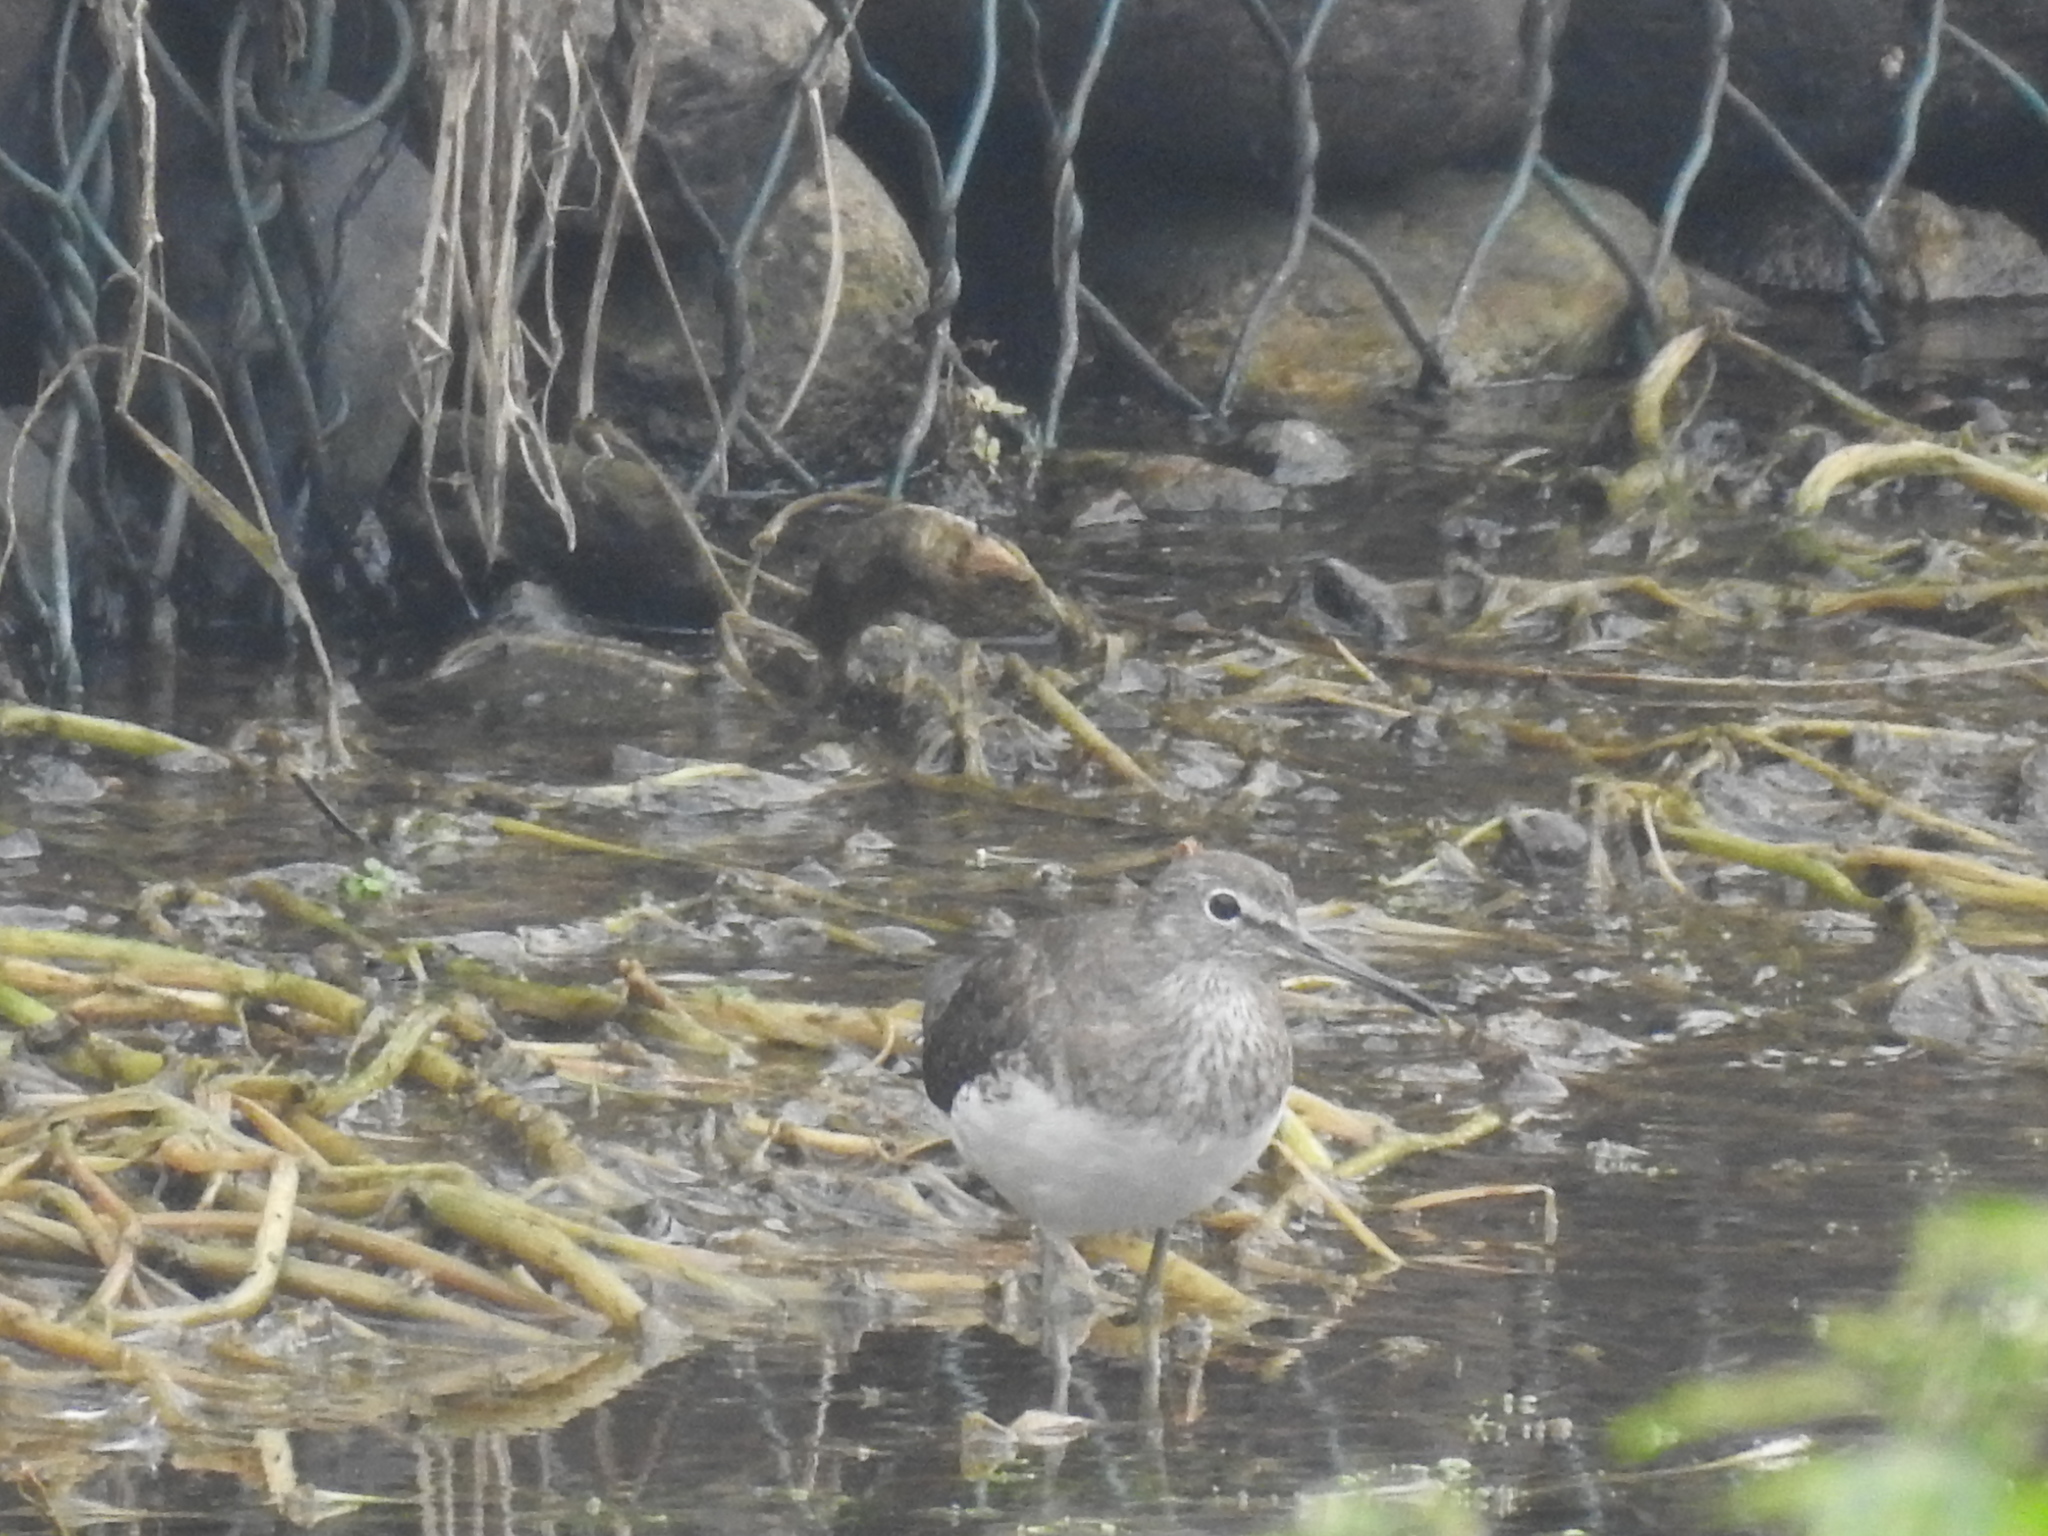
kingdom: Animalia
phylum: Chordata
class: Aves
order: Charadriiformes
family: Scolopacidae
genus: Tringa
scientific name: Tringa ochropus
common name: Green sandpiper
